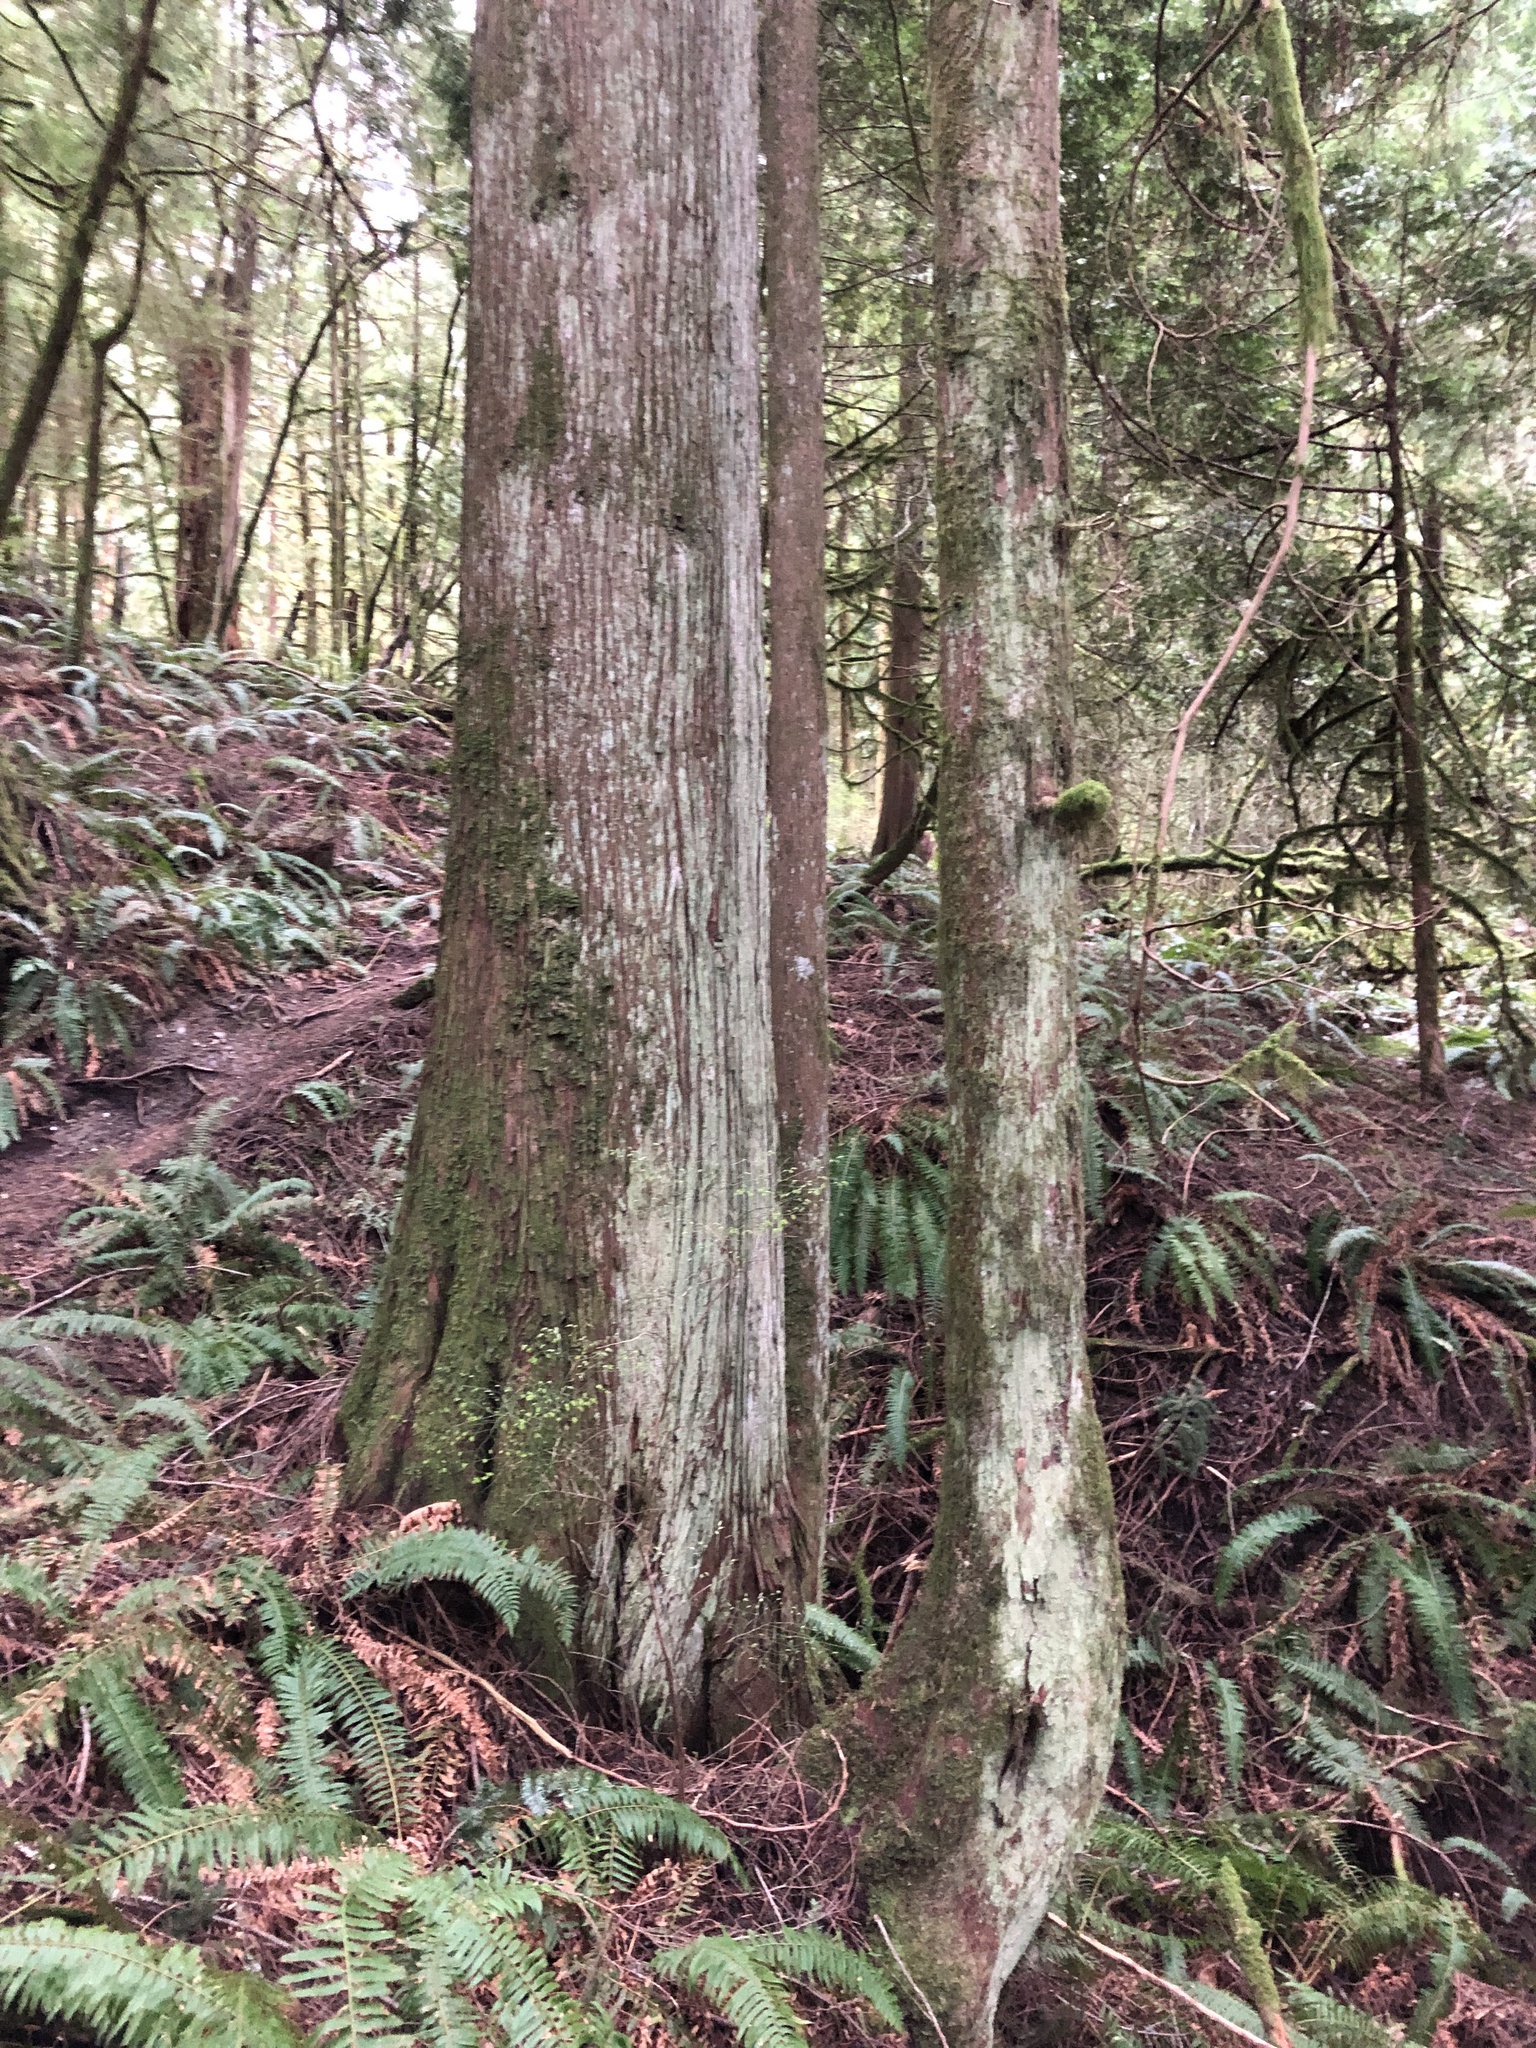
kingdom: Plantae
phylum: Tracheophyta
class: Pinopsida
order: Pinales
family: Cupressaceae
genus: Thuja
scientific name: Thuja plicata
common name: Western red-cedar
